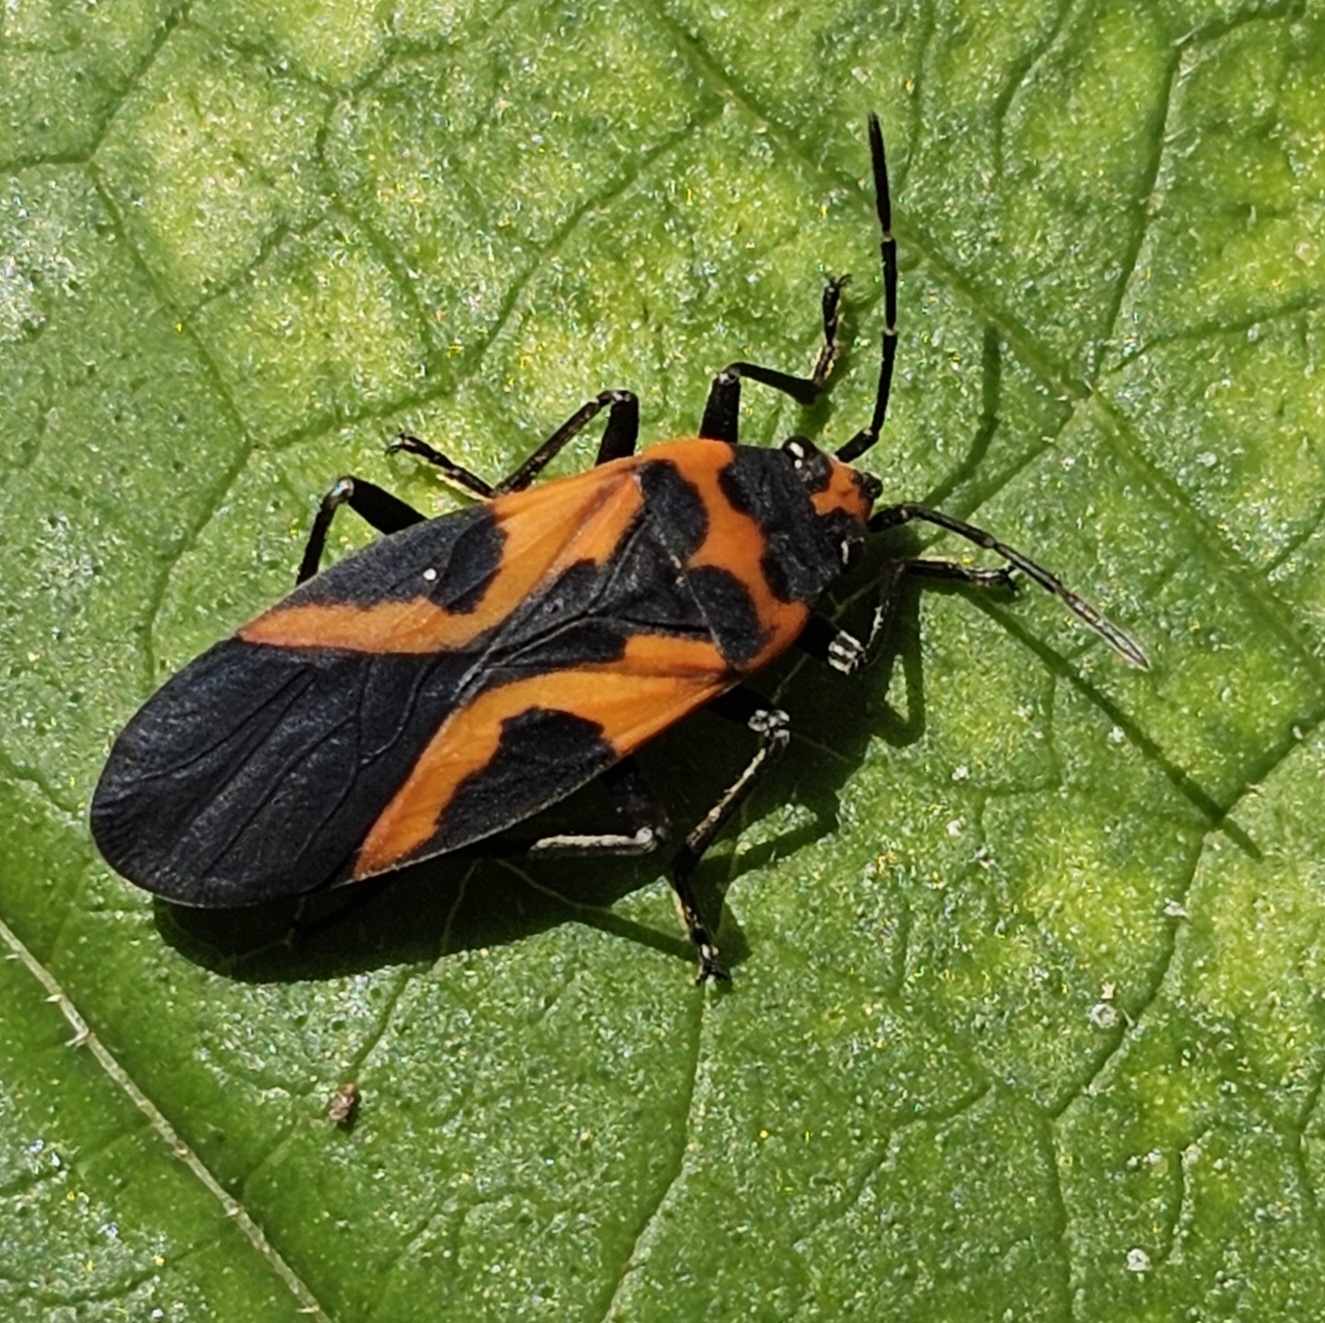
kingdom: Animalia
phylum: Arthropoda
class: Insecta
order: Hemiptera
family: Lygaeidae
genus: Lygaeus
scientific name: Lygaeus turcicus
